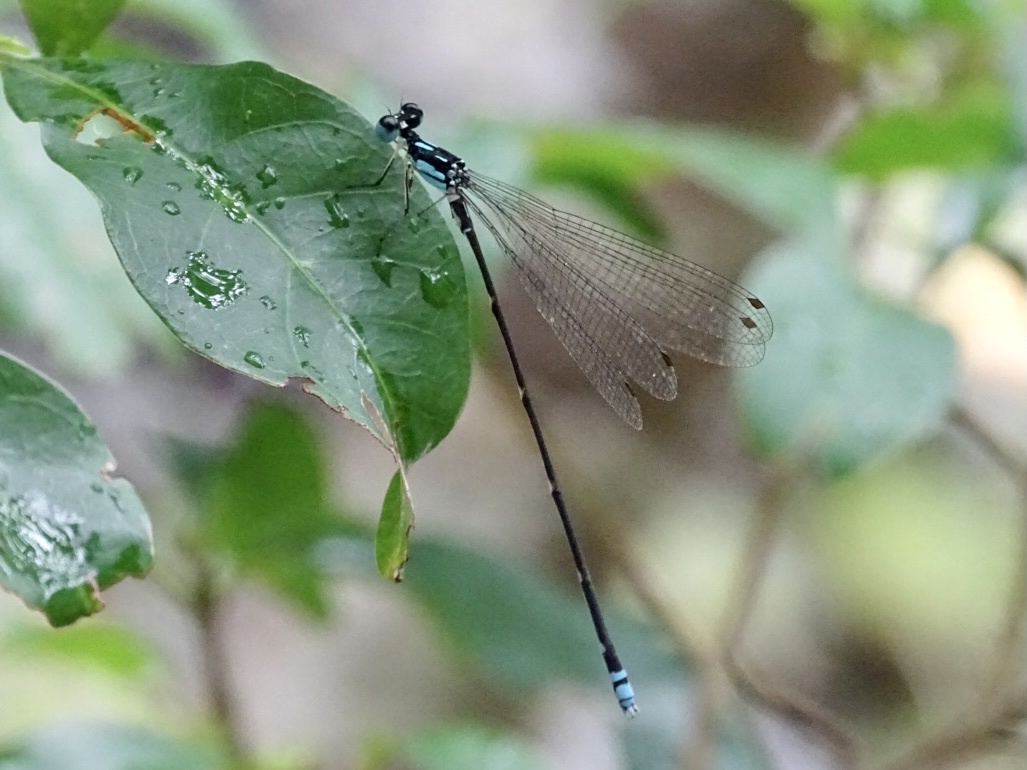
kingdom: Animalia
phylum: Arthropoda
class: Insecta
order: Odonata
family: Platycnemididae
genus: Coeliccia
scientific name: Coeliccia cyanomelas
